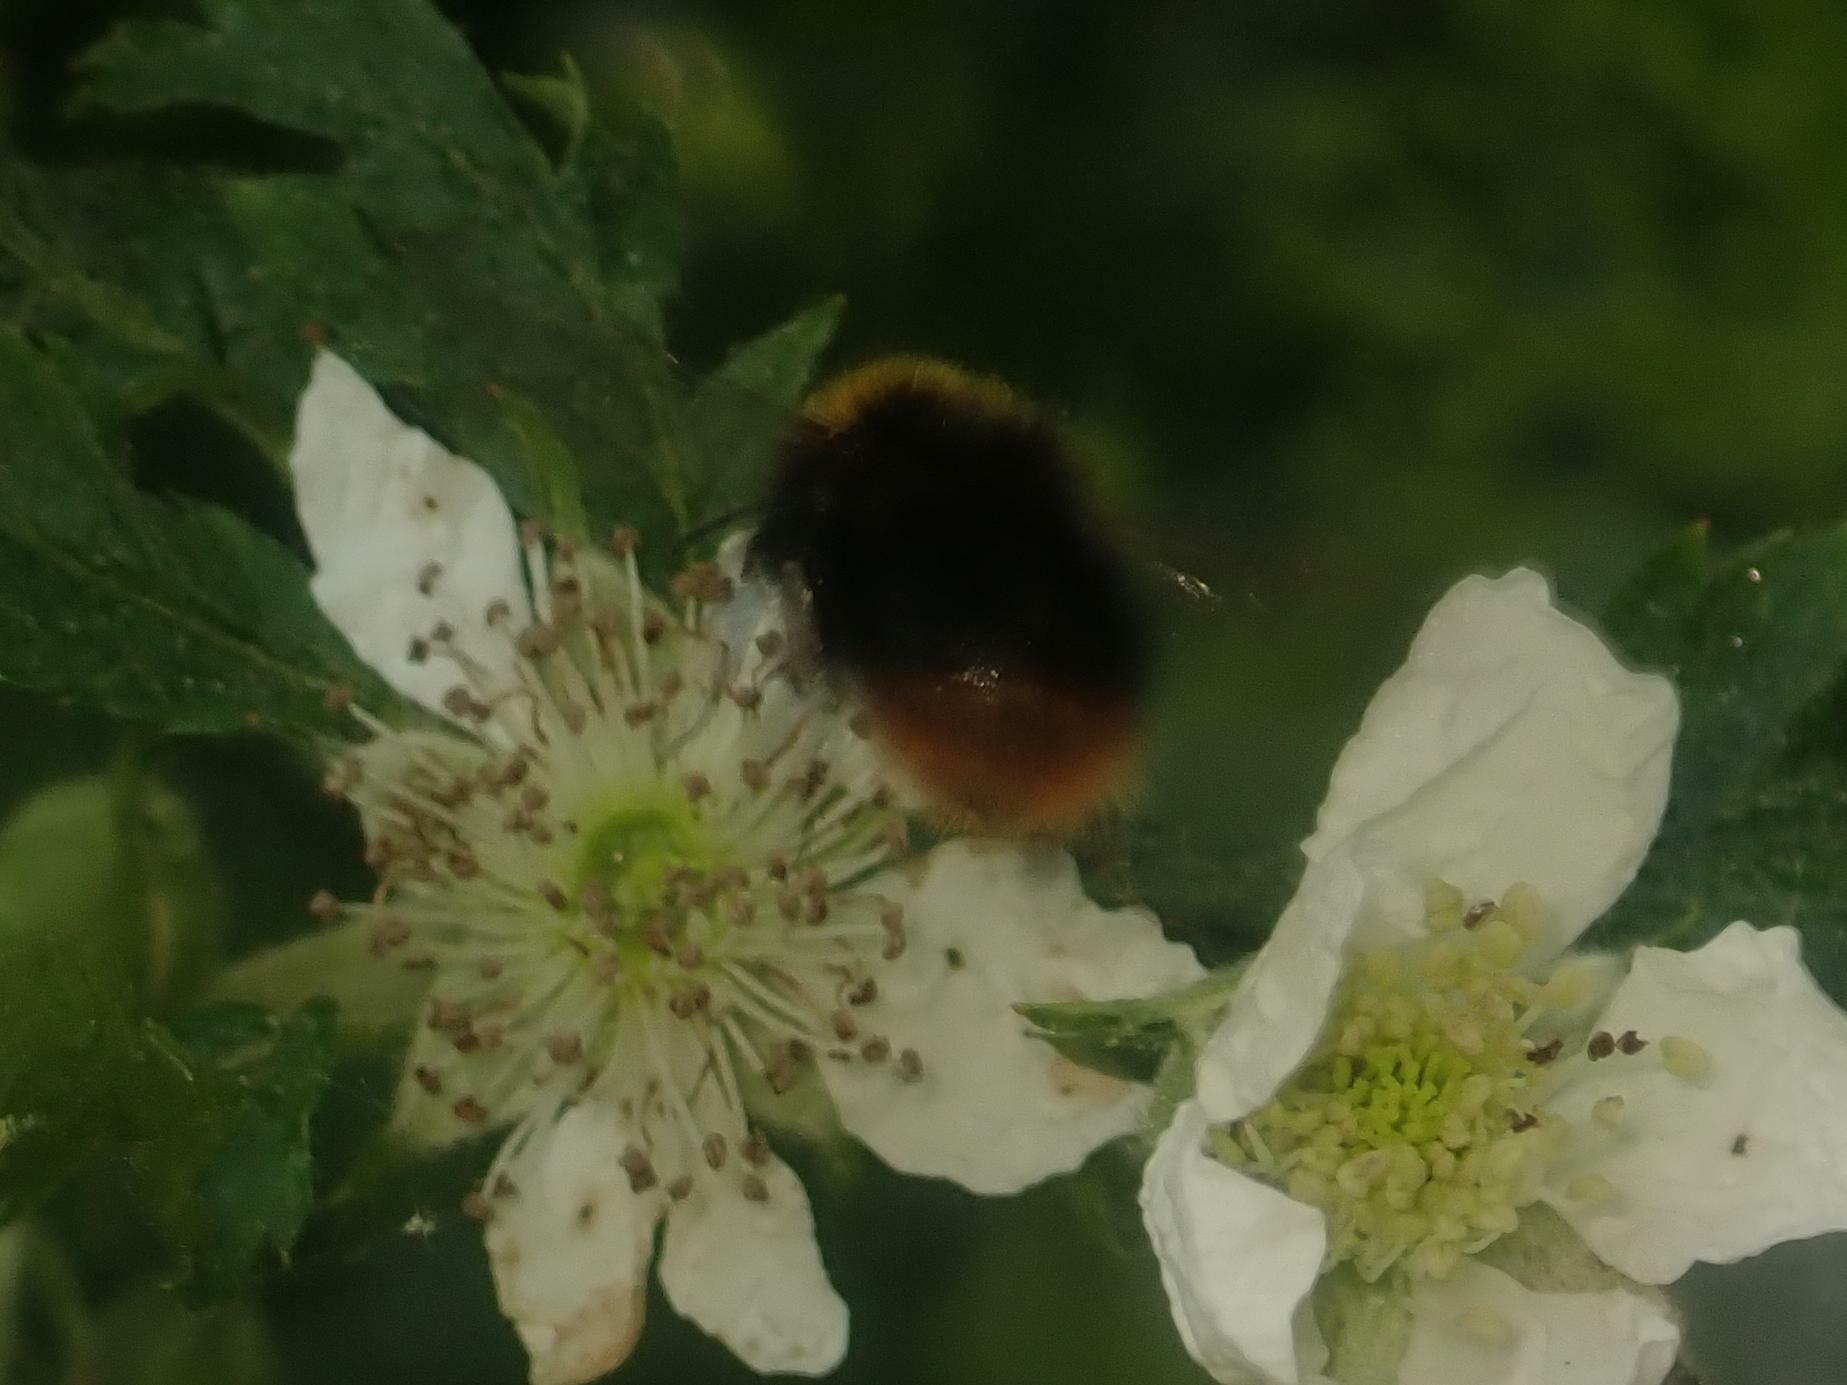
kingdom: Animalia
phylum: Arthropoda
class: Insecta
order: Hymenoptera
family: Apidae
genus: Bombus
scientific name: Bombus pratorum
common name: Early humble-bee
